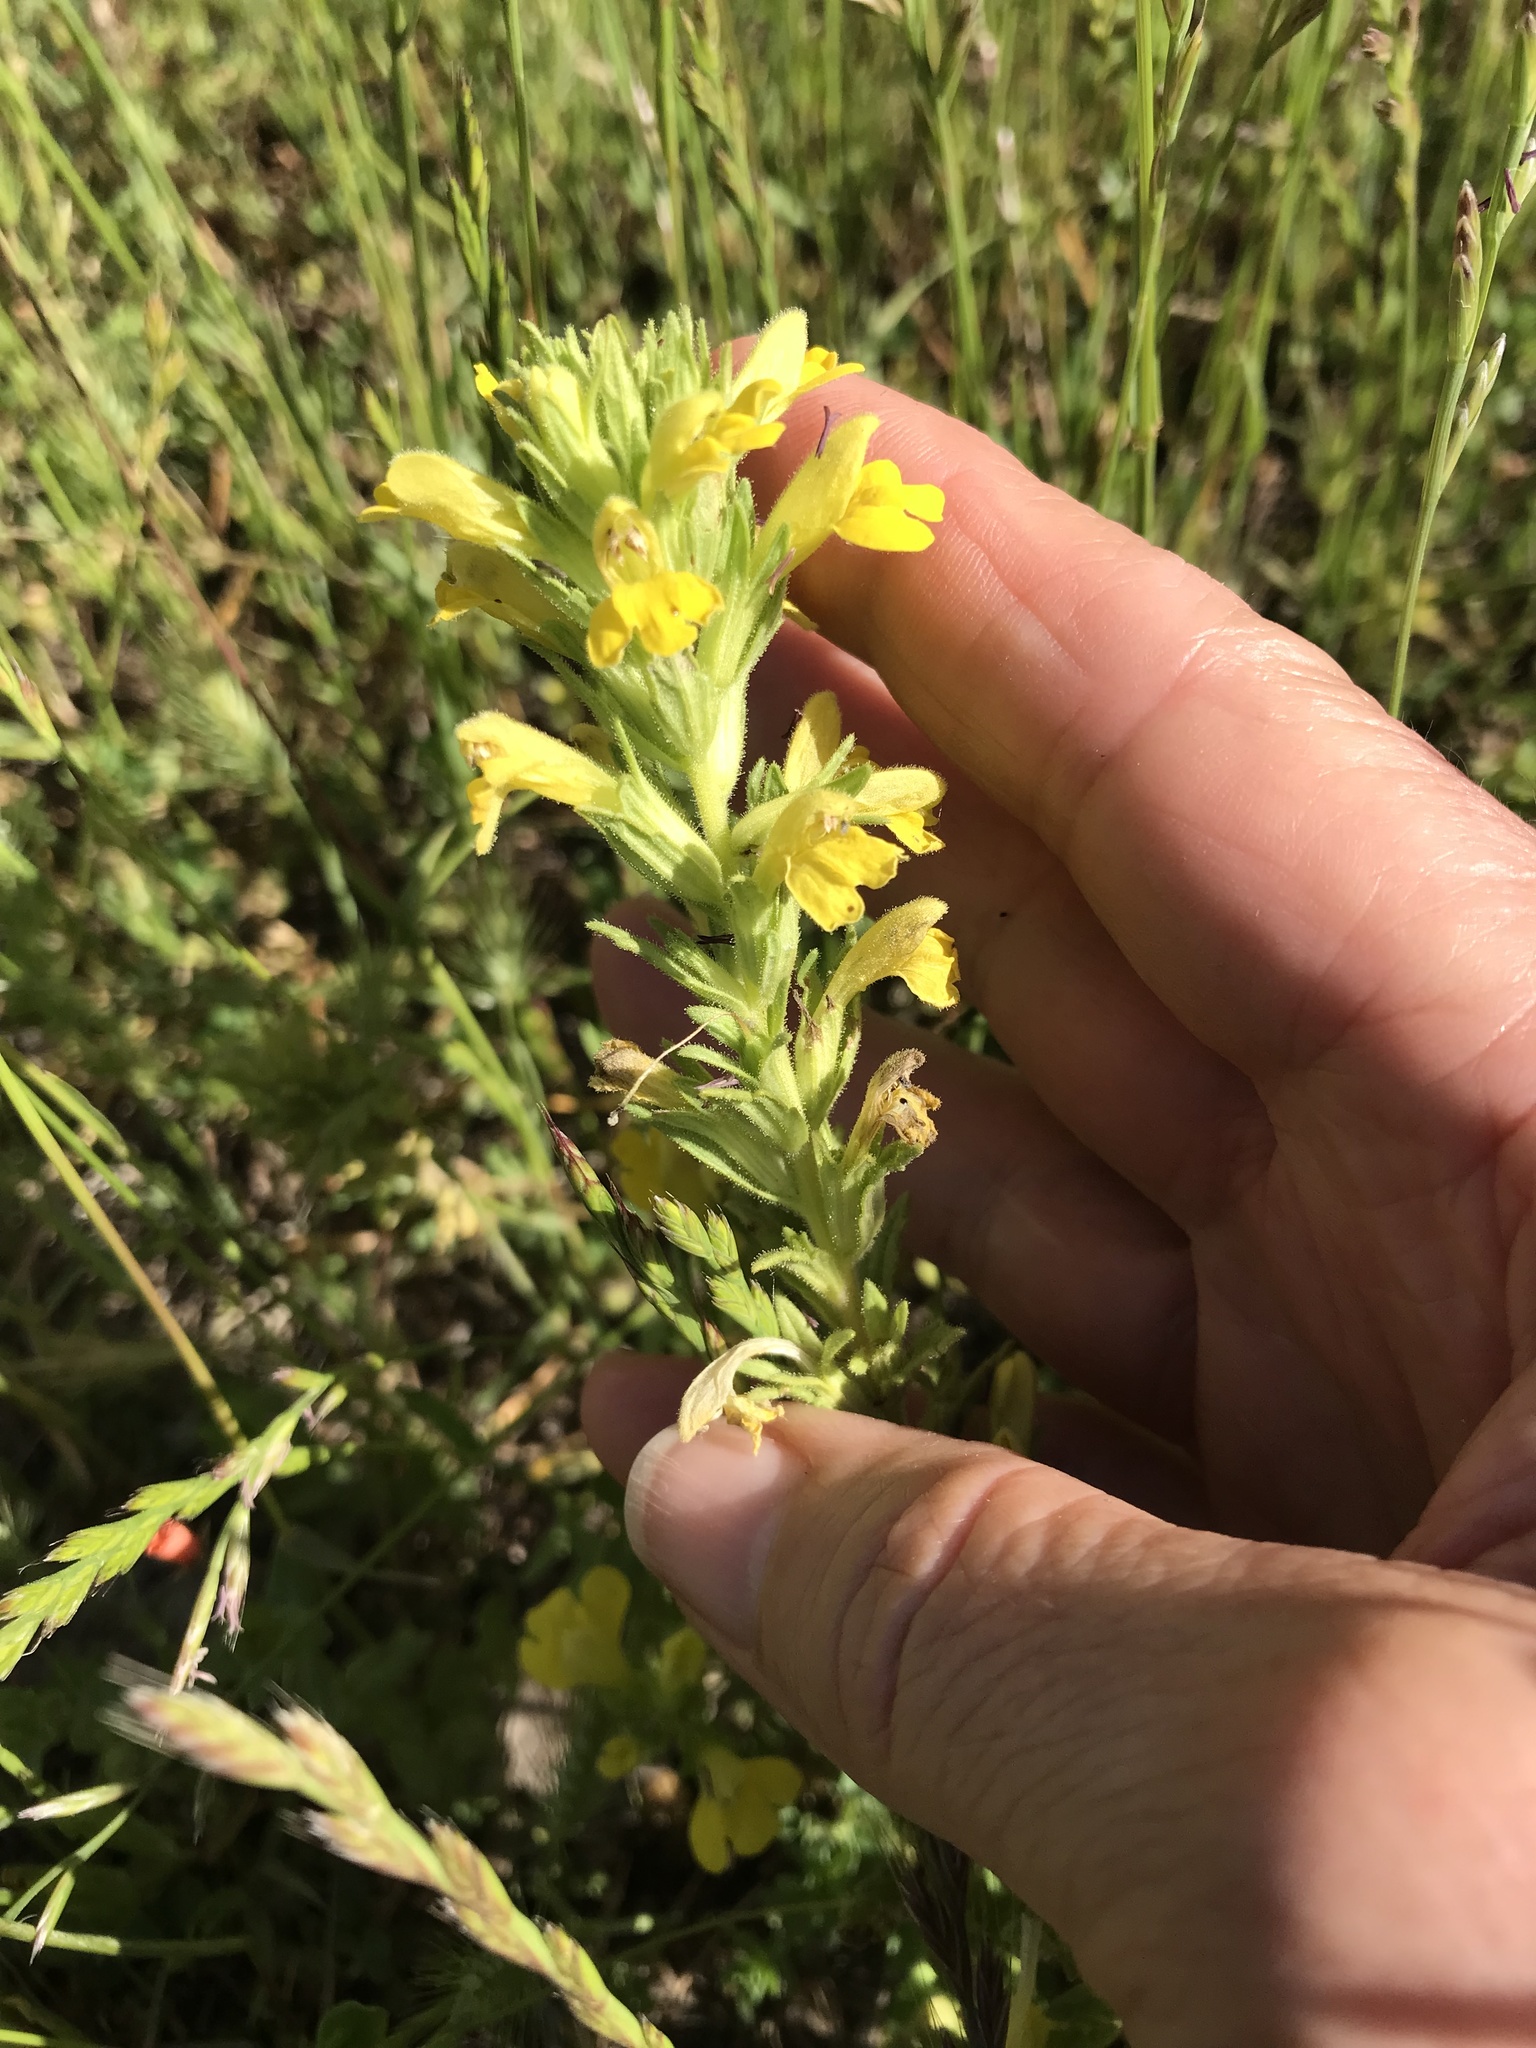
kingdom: Plantae
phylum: Tracheophyta
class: Magnoliopsida
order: Lamiales
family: Orobanchaceae
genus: Bellardia
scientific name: Bellardia viscosa
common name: Sticky parentucellia
